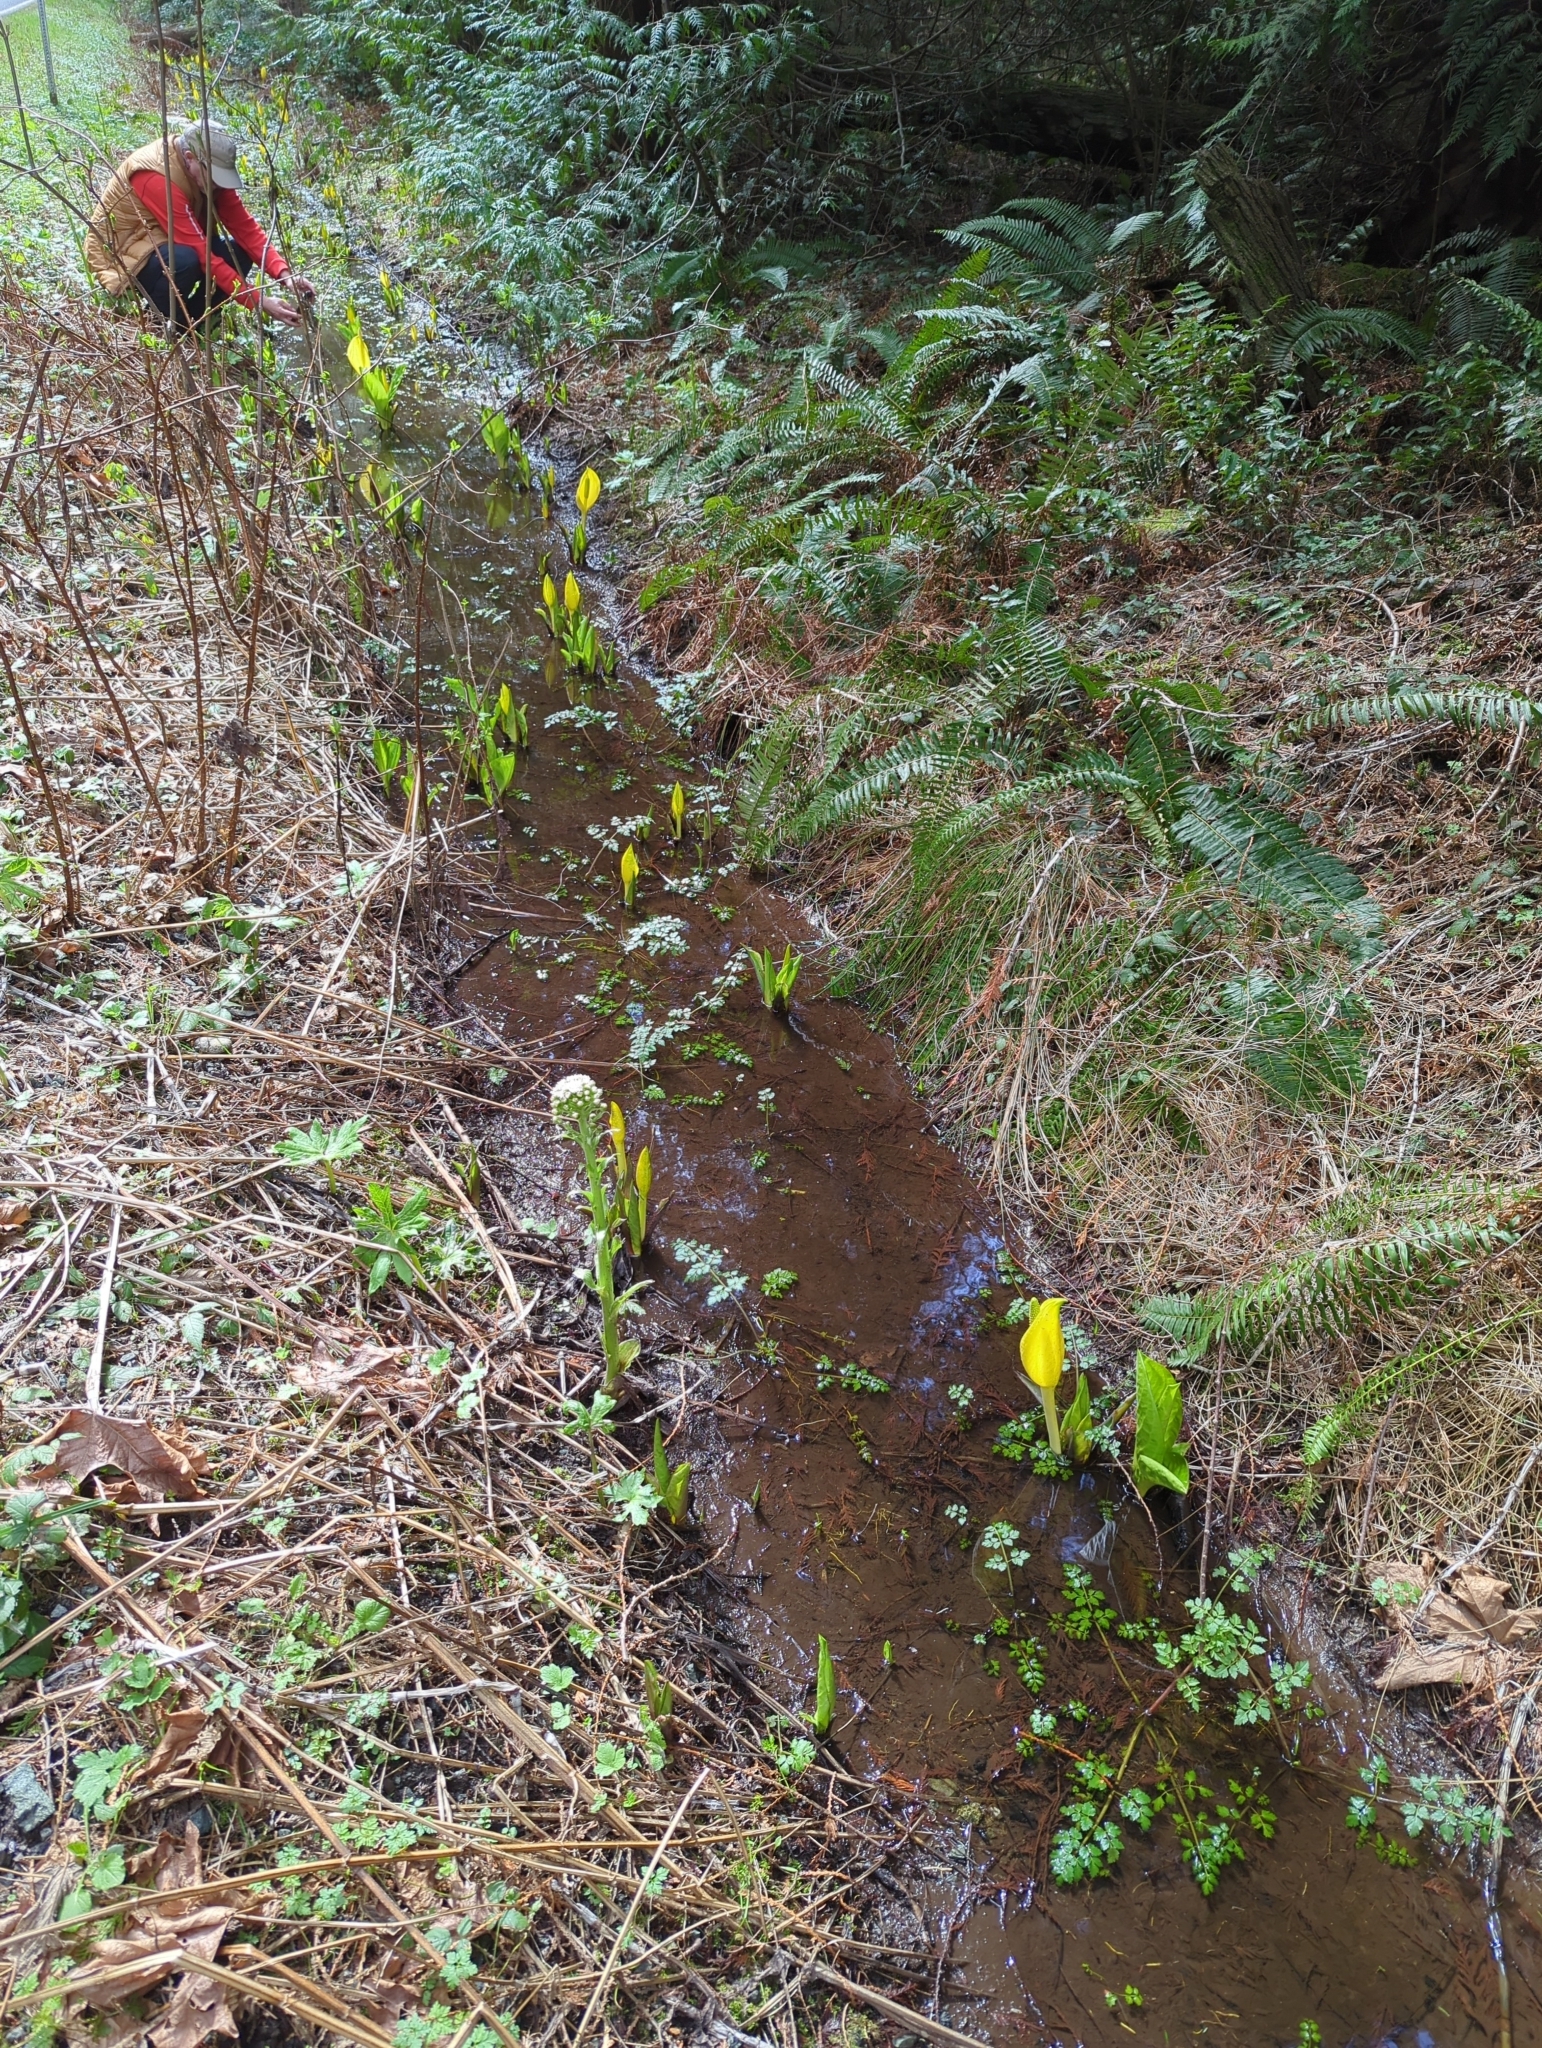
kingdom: Plantae
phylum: Tracheophyta
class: Liliopsida
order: Alismatales
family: Araceae
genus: Lysichiton
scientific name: Lysichiton americanus
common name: American skunk cabbage
